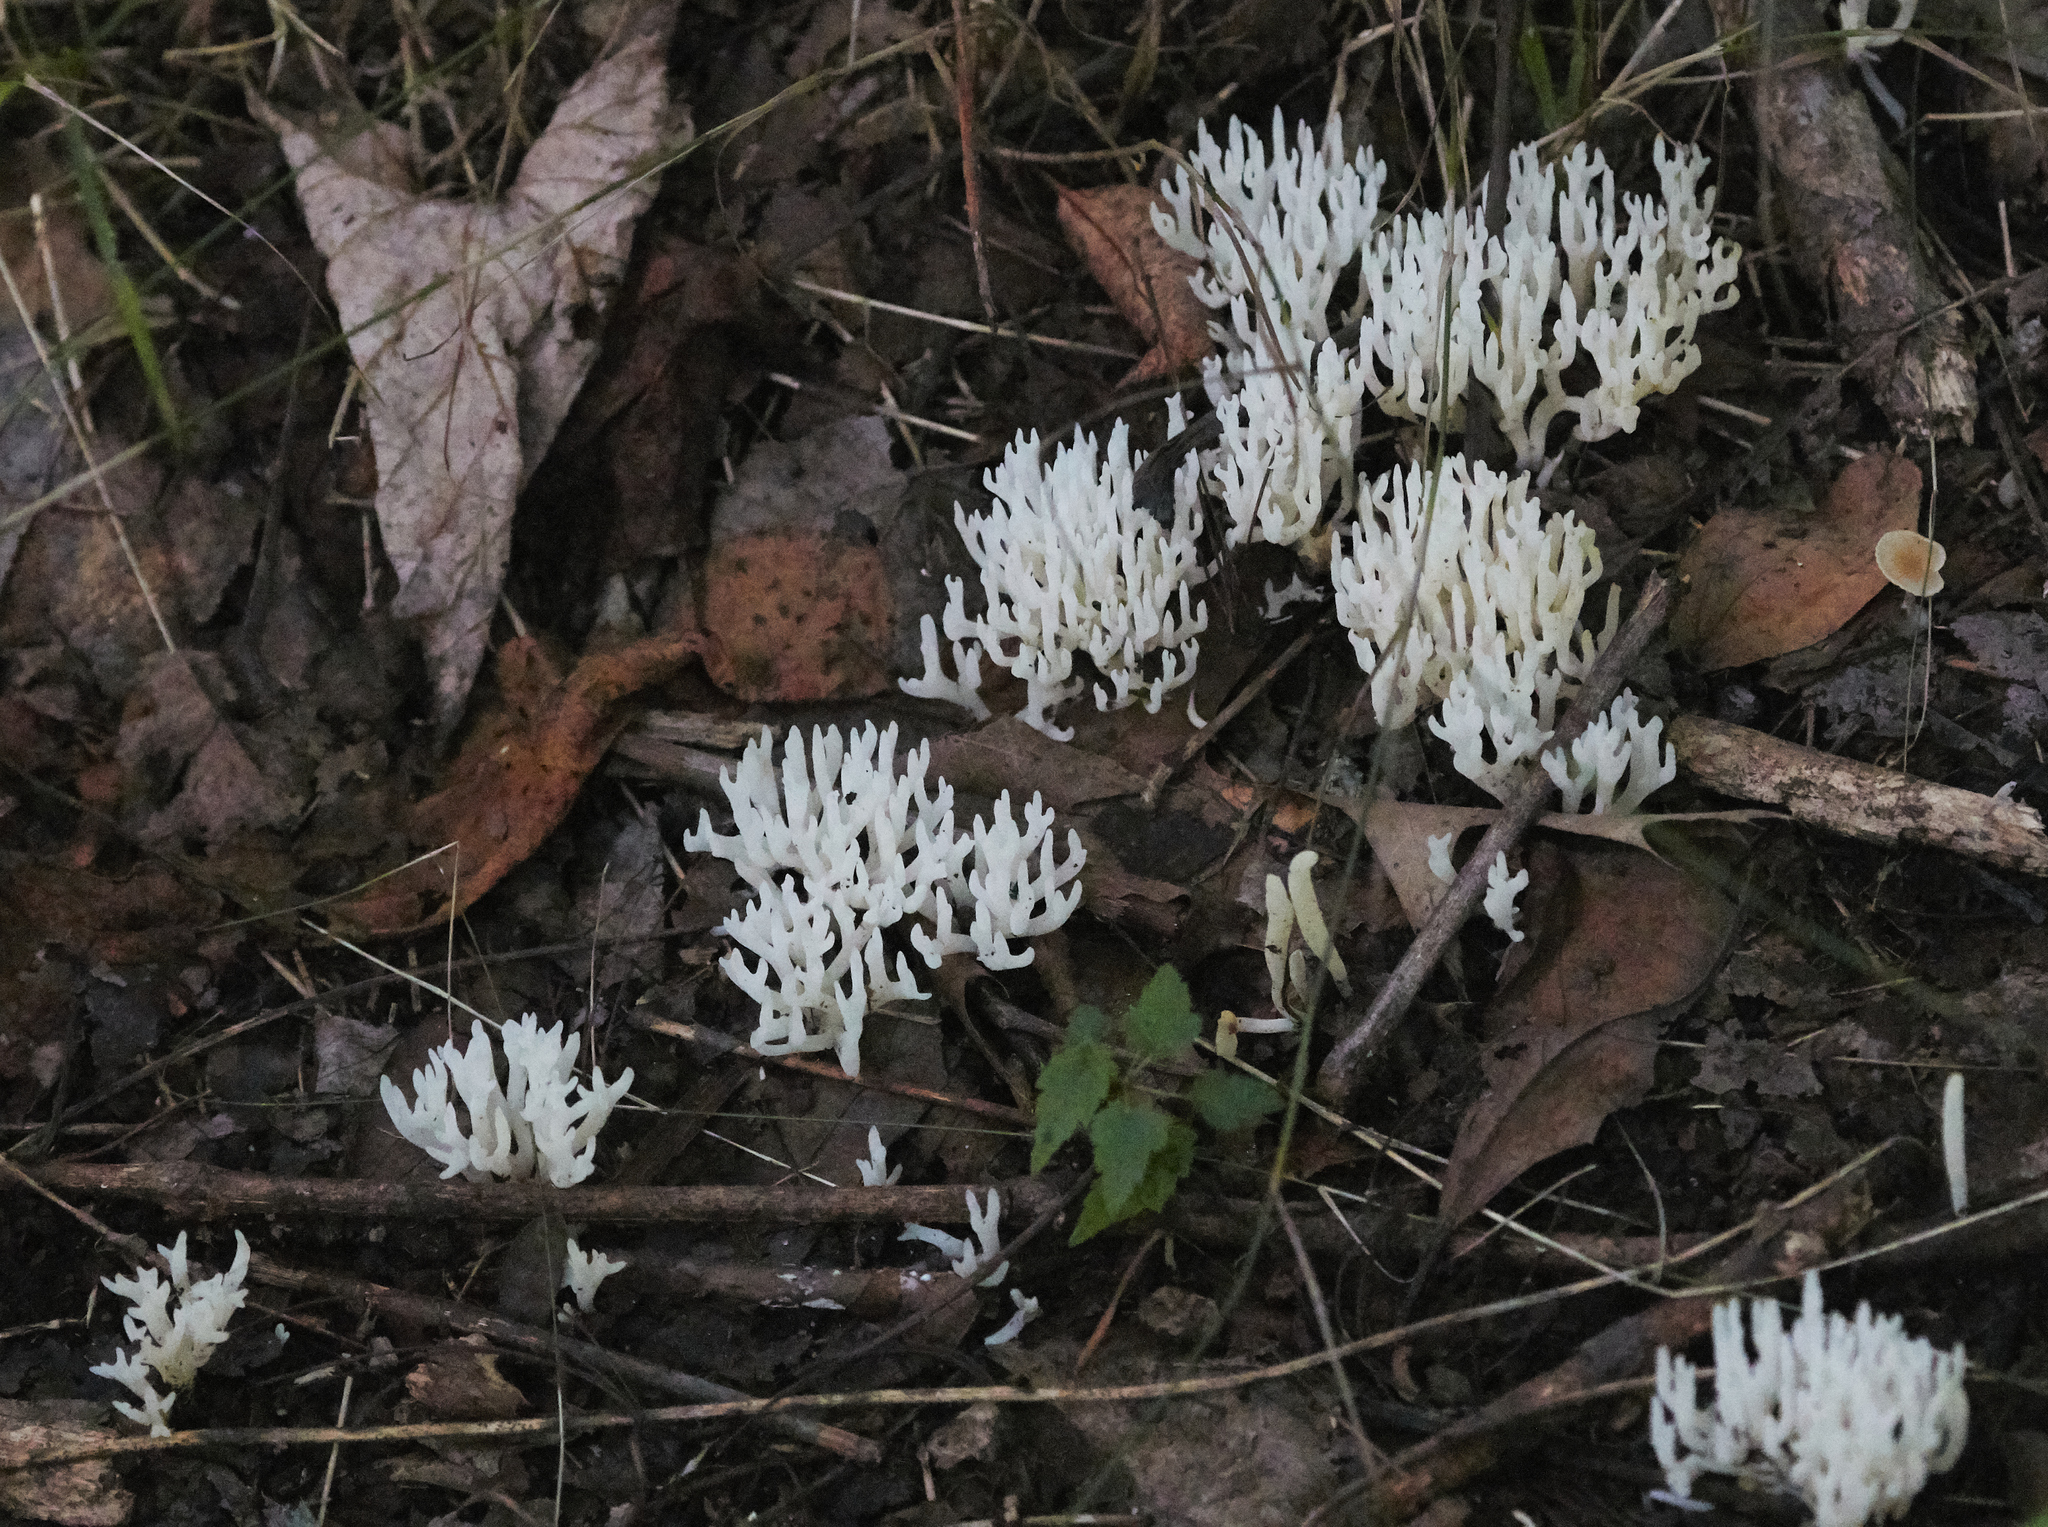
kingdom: Fungi
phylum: Basidiomycota
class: Agaricomycetes
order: Agaricales
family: Clavariaceae
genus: Ramariopsis
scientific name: Ramariopsis kunzei
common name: Ivory coral
